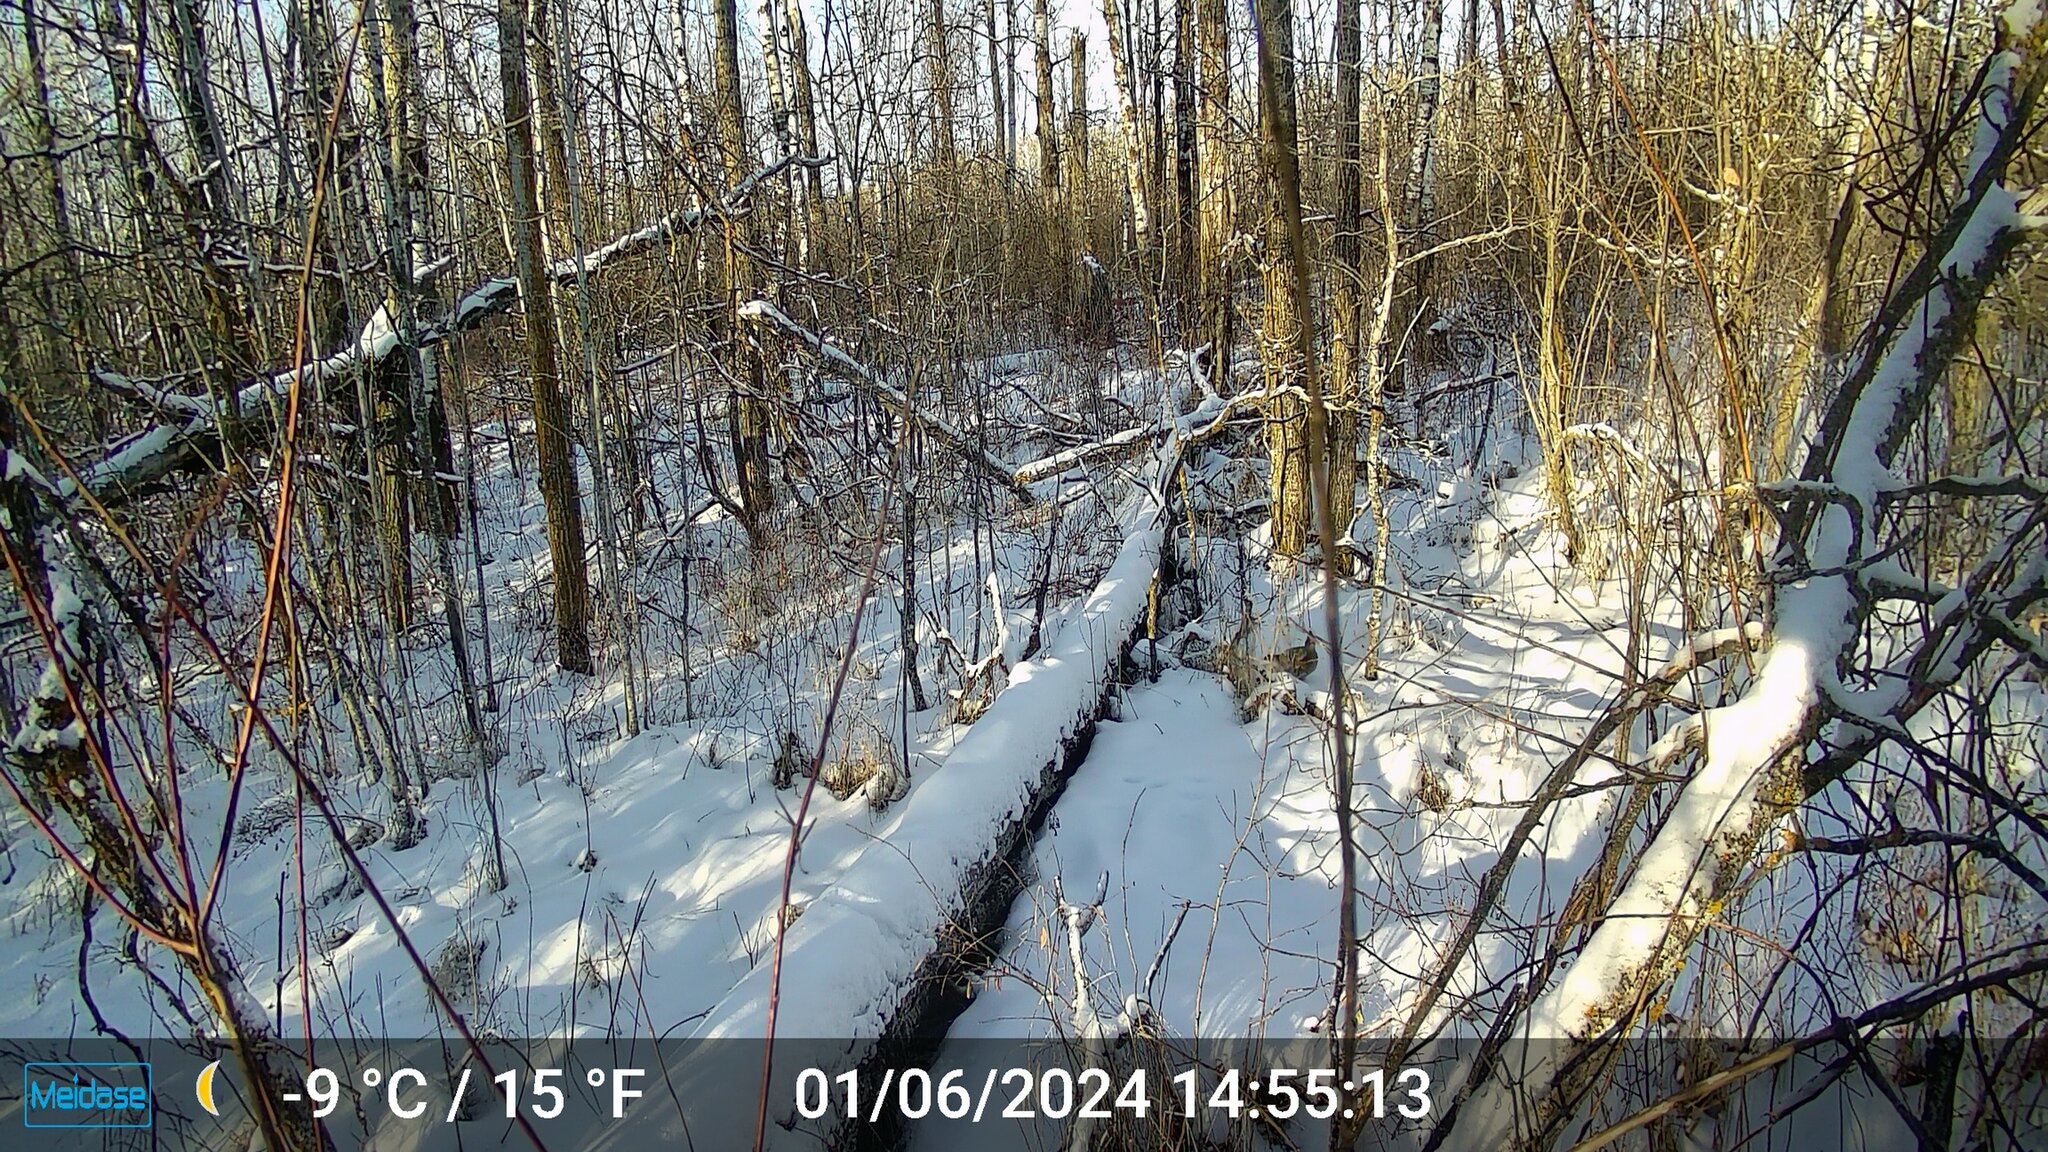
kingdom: Animalia
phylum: Chordata
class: Aves
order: Galliformes
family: Phasianidae
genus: Bonasa
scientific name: Bonasa umbellus
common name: Ruffed grouse
